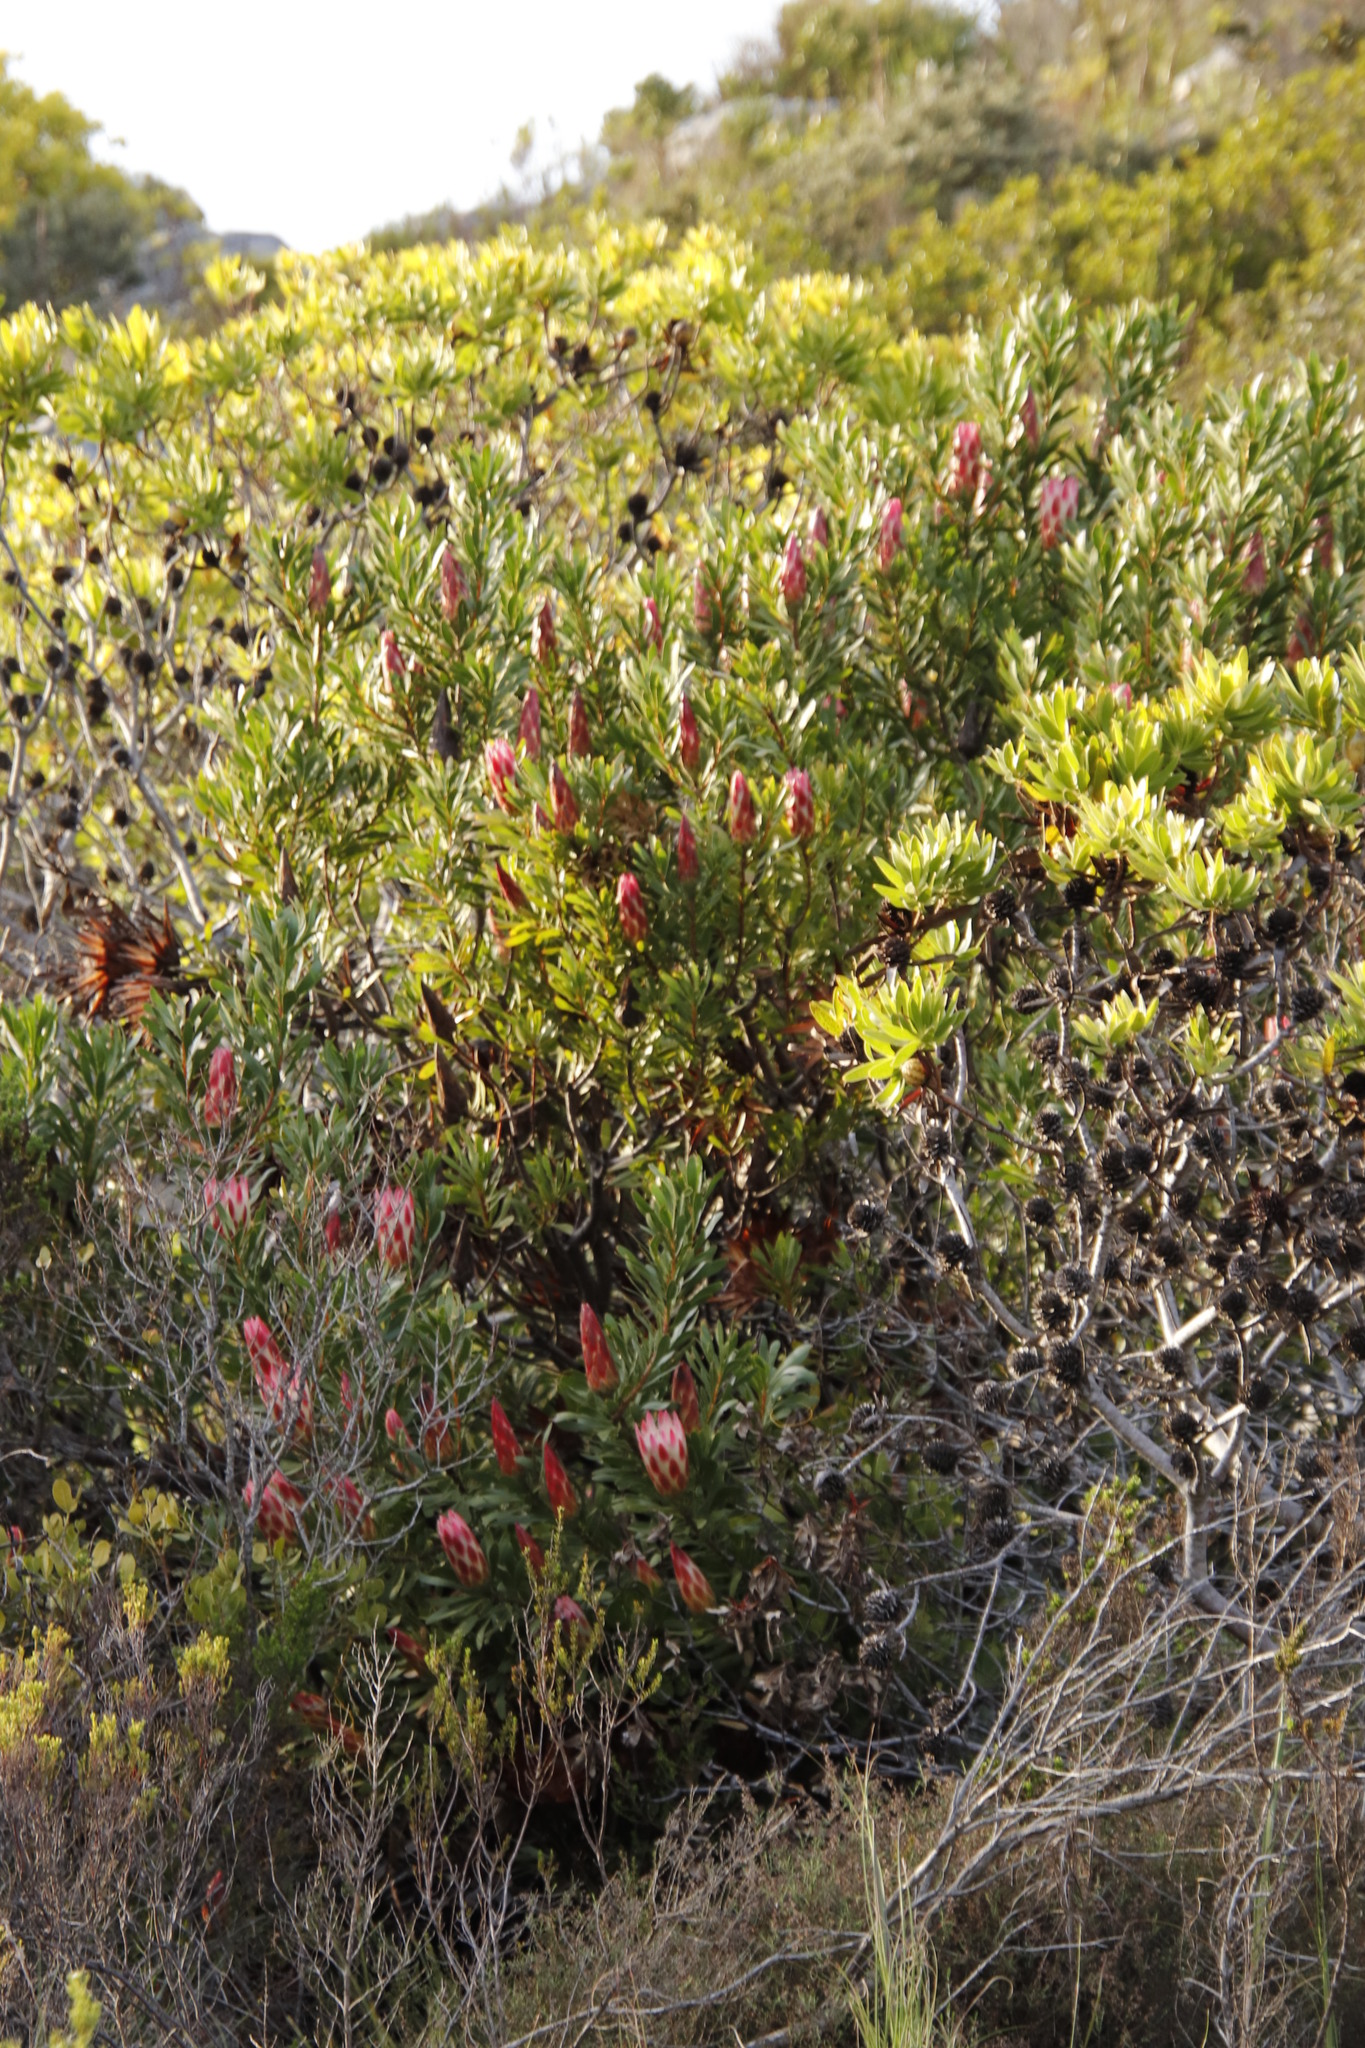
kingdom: Plantae
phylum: Tracheophyta
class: Magnoliopsida
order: Proteales
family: Proteaceae
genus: Protea
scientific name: Protea repens
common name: Sugarbush
